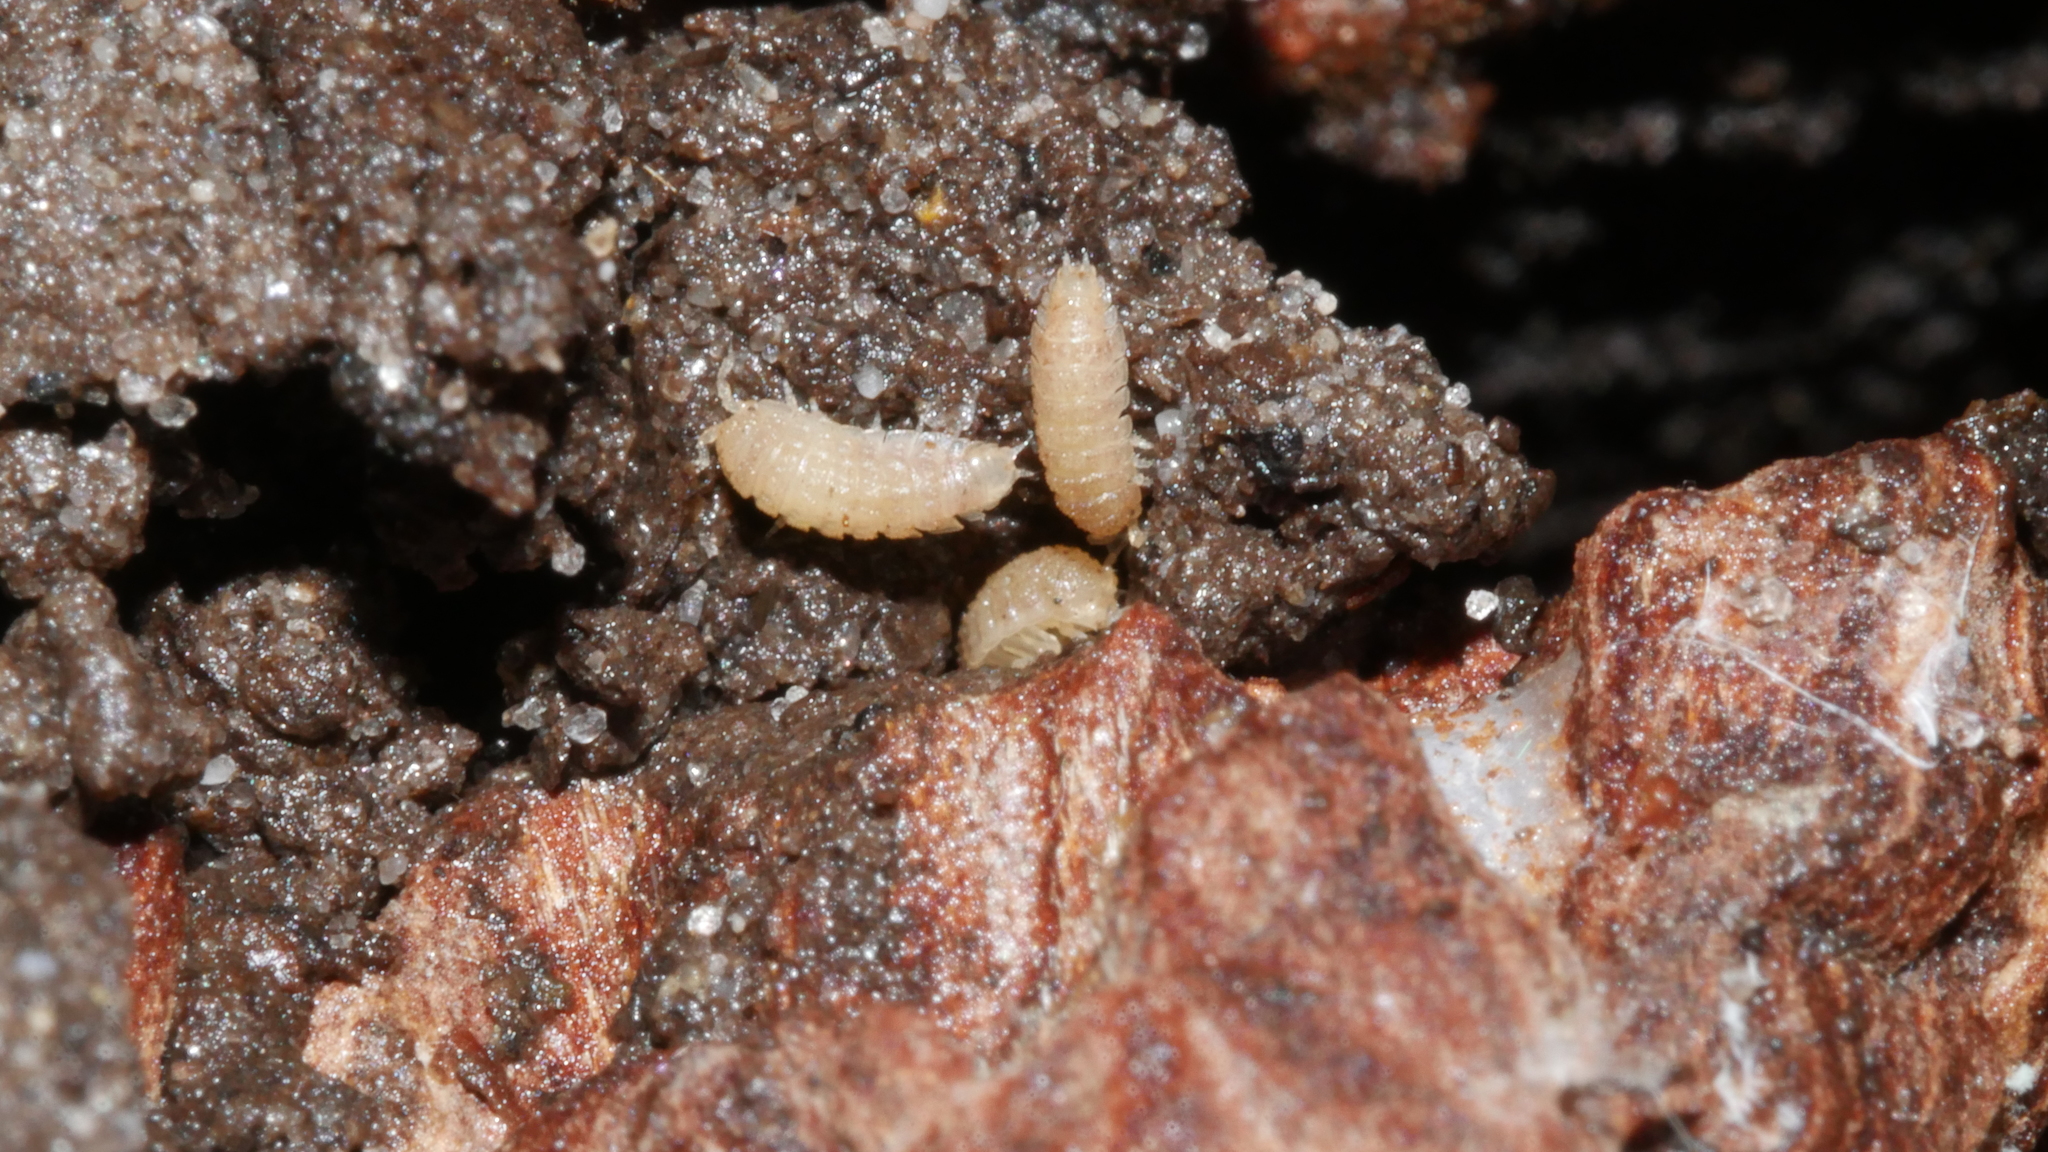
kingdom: Animalia
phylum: Arthropoda
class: Malacostraca
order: Isopoda
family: Trichoniscidae
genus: Haplophthalmus
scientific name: Haplophthalmus danicus
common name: Pillbug
